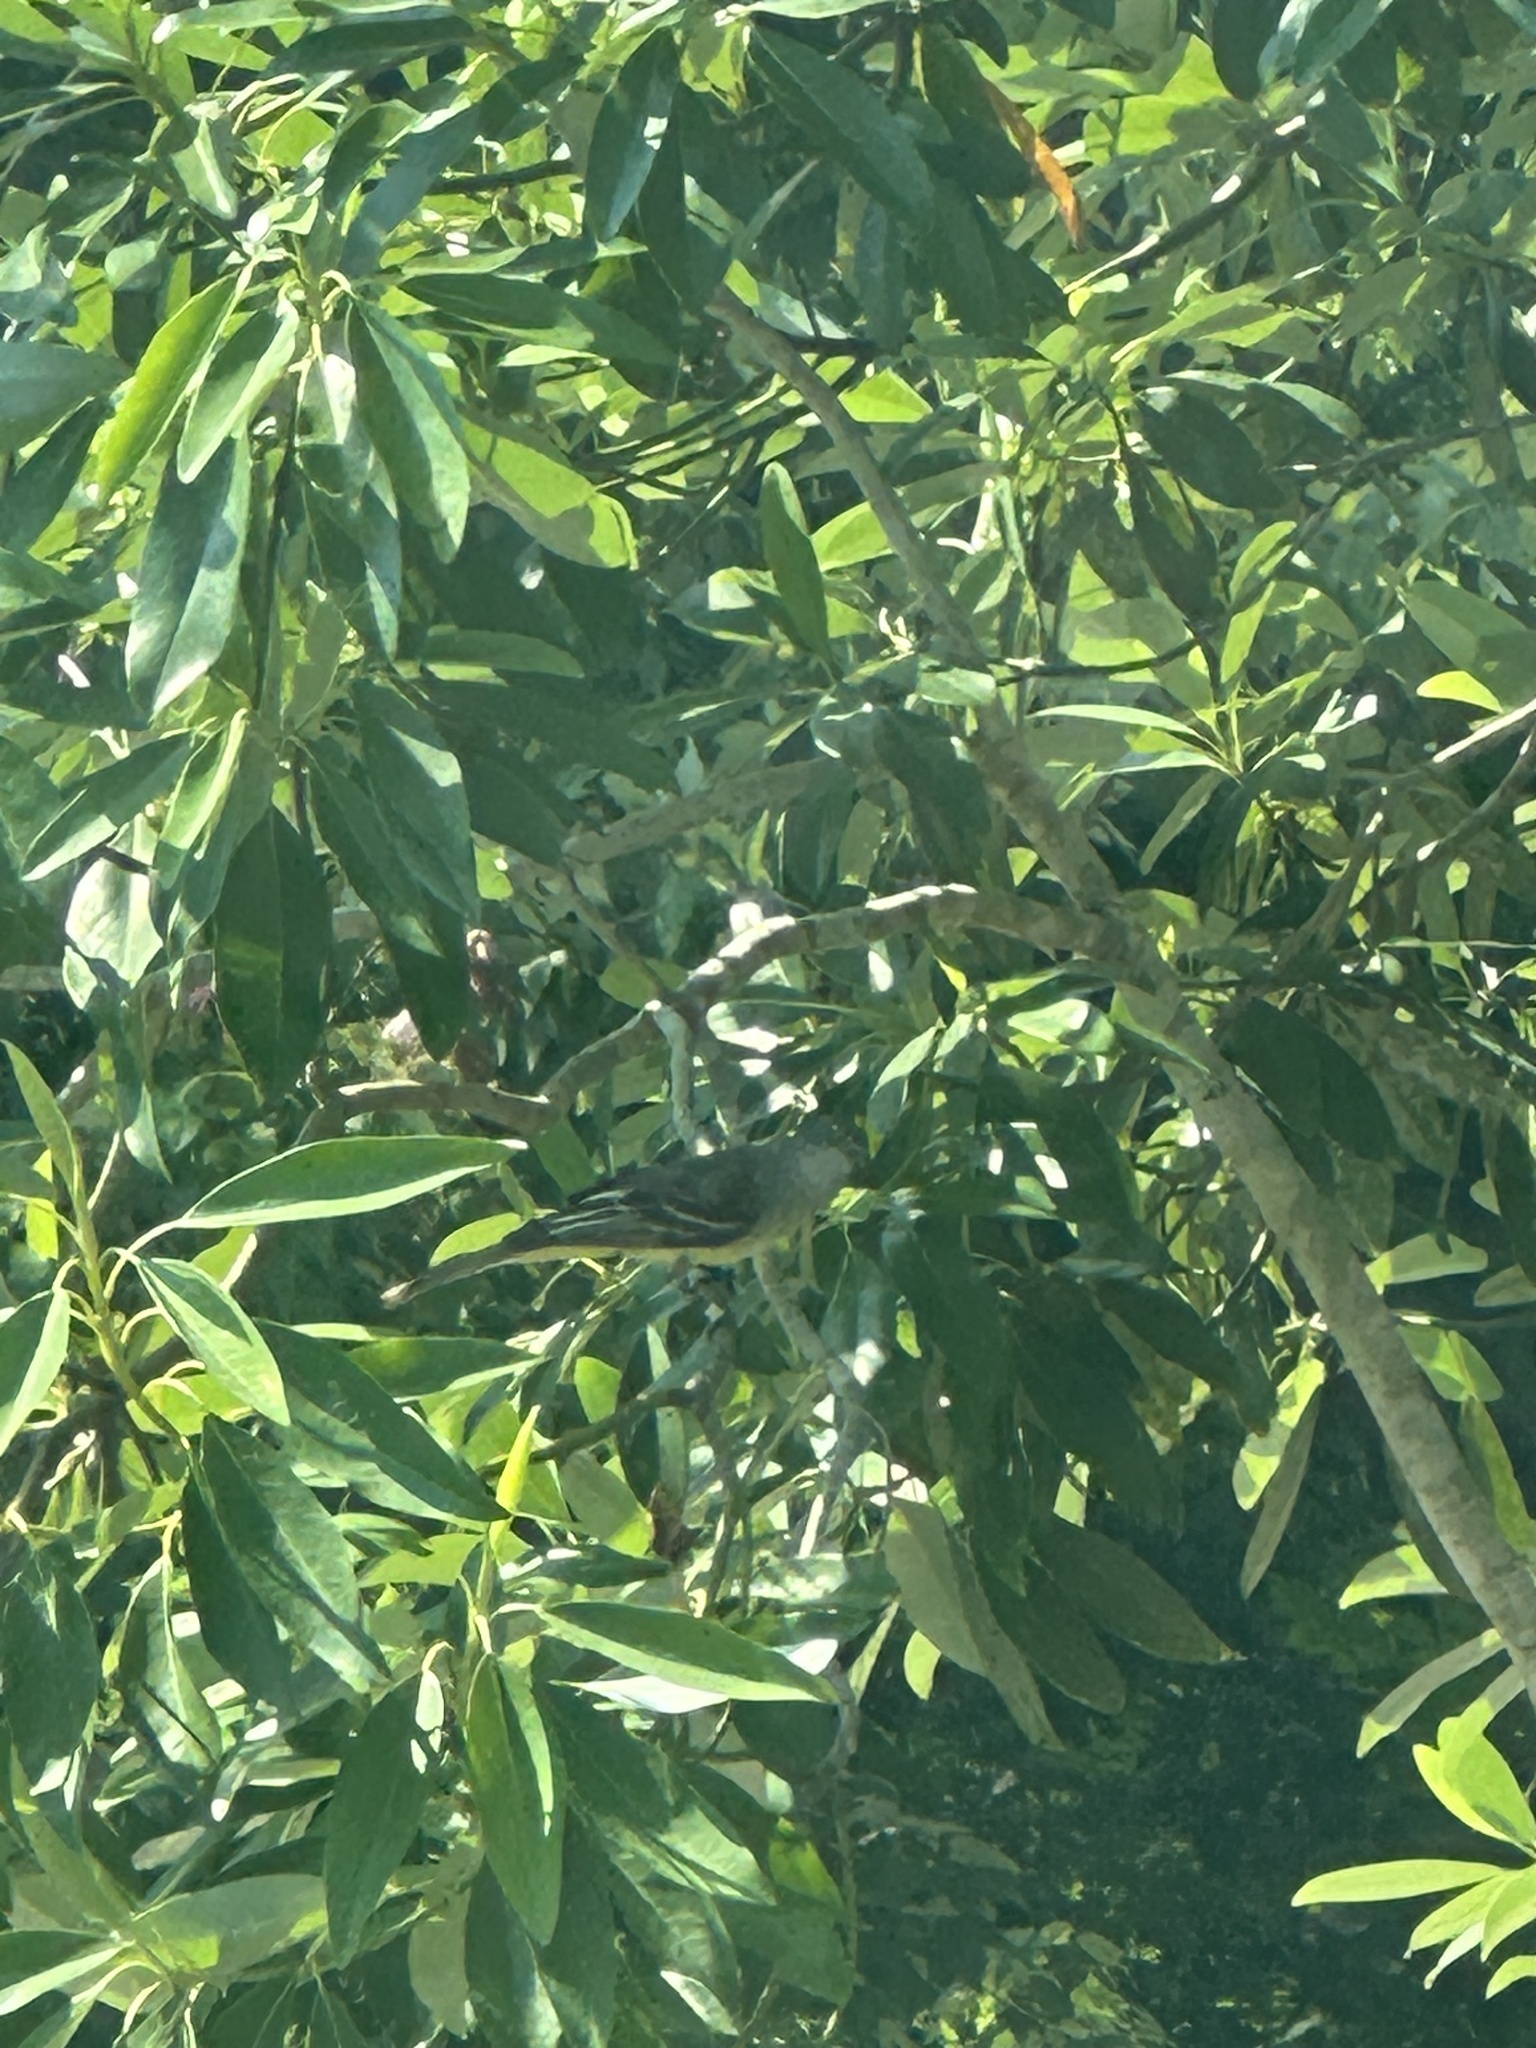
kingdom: Animalia
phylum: Chordata
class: Aves
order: Passeriformes
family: Tyrannidae
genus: Myiarchus
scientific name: Myiarchus crinitus
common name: Great crested flycatcher
